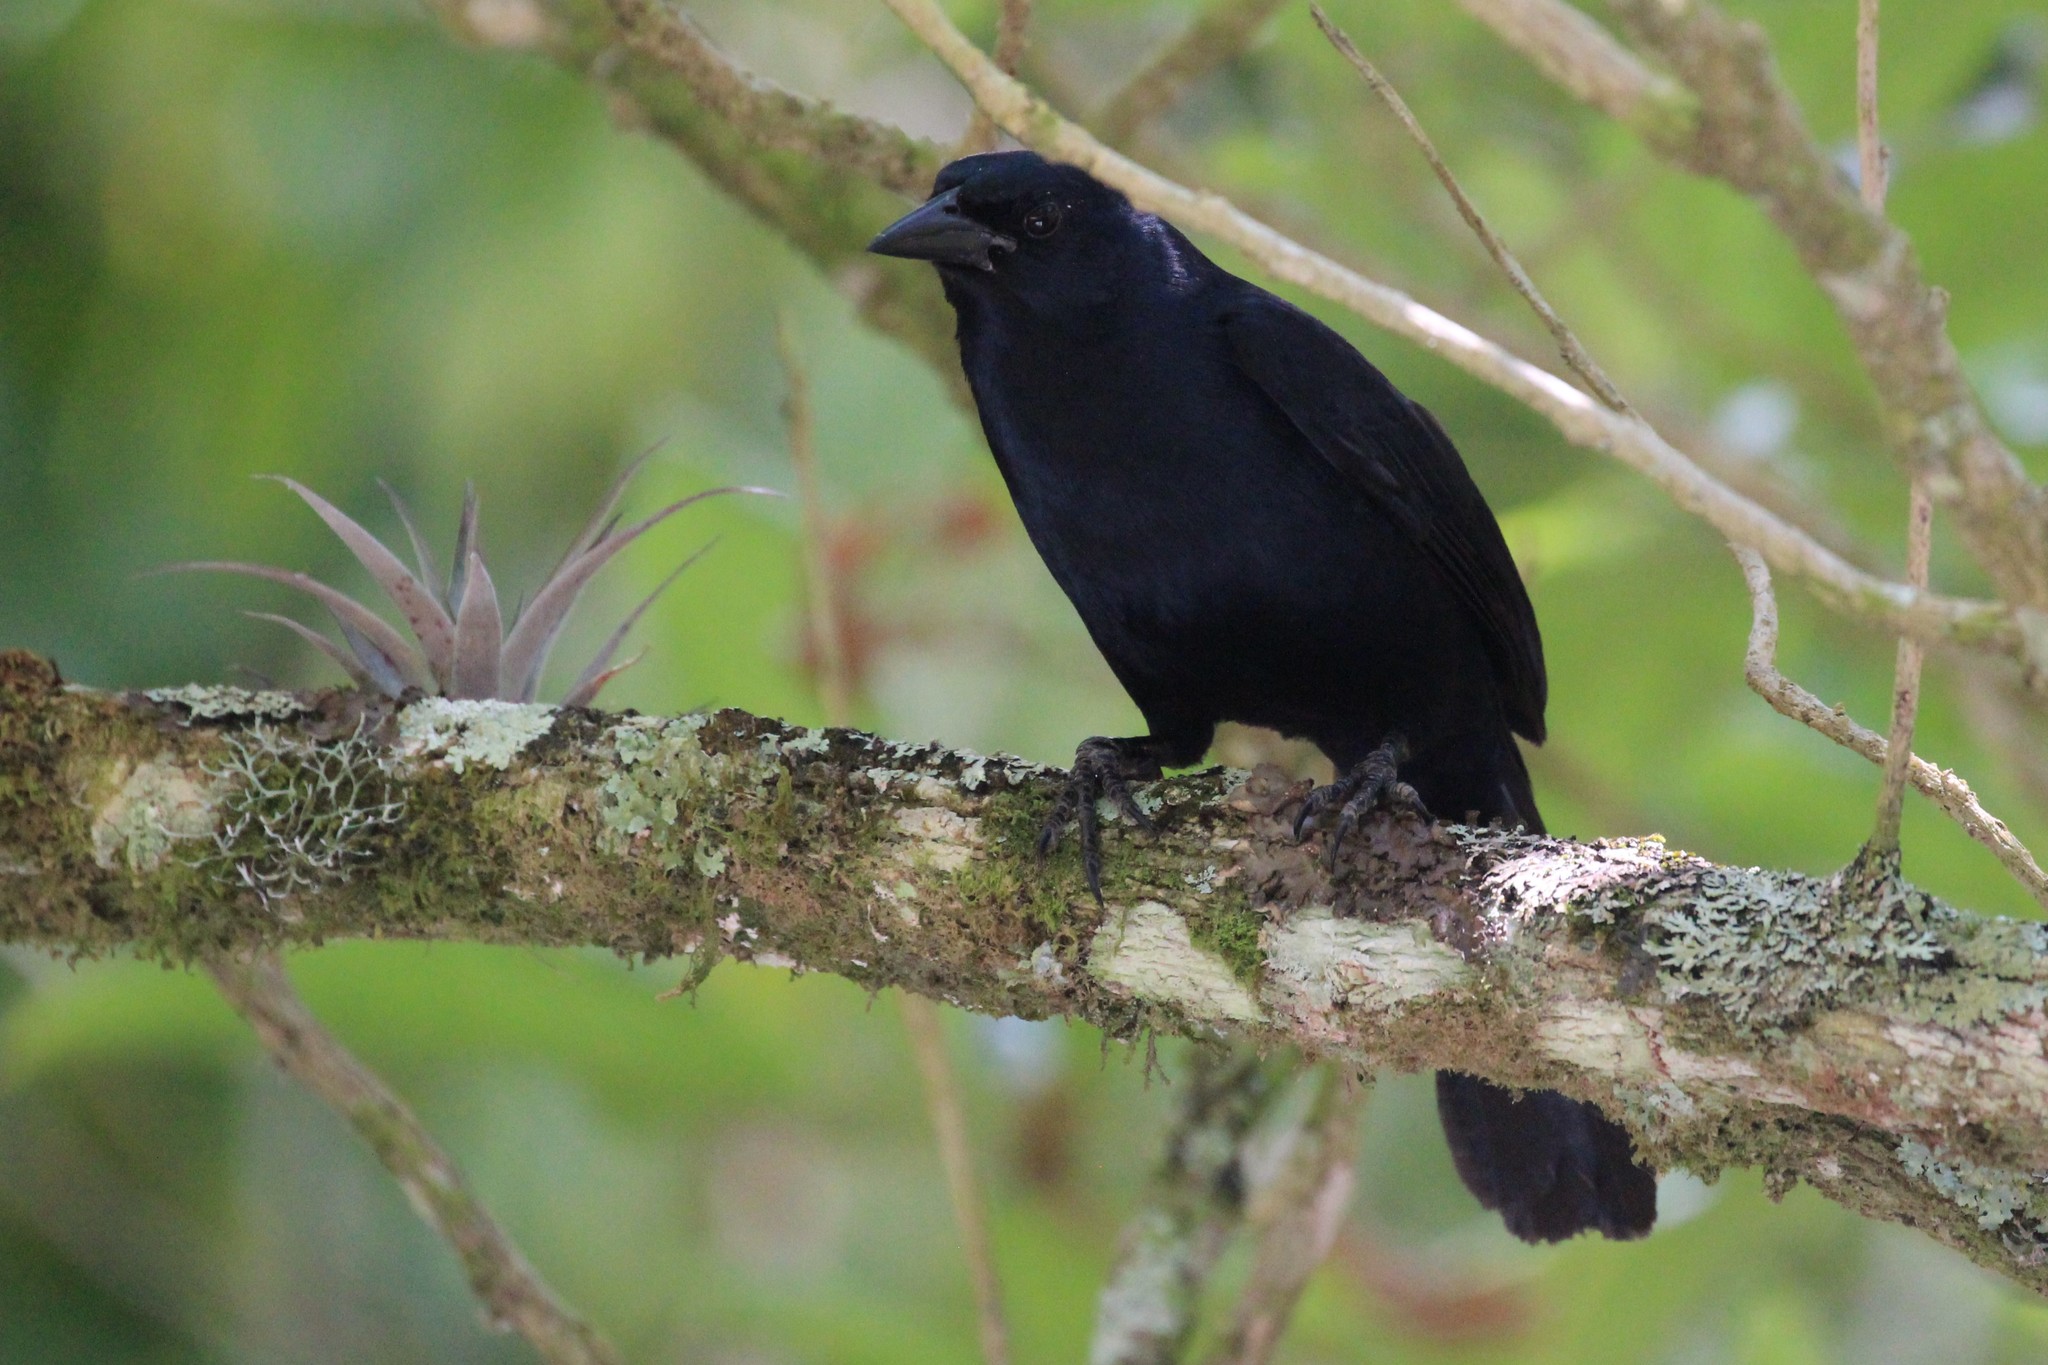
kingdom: Animalia
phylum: Chordata
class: Aves
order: Passeriformes
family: Icteridae
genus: Dives
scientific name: Dives dives
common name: Melodious blackbird
